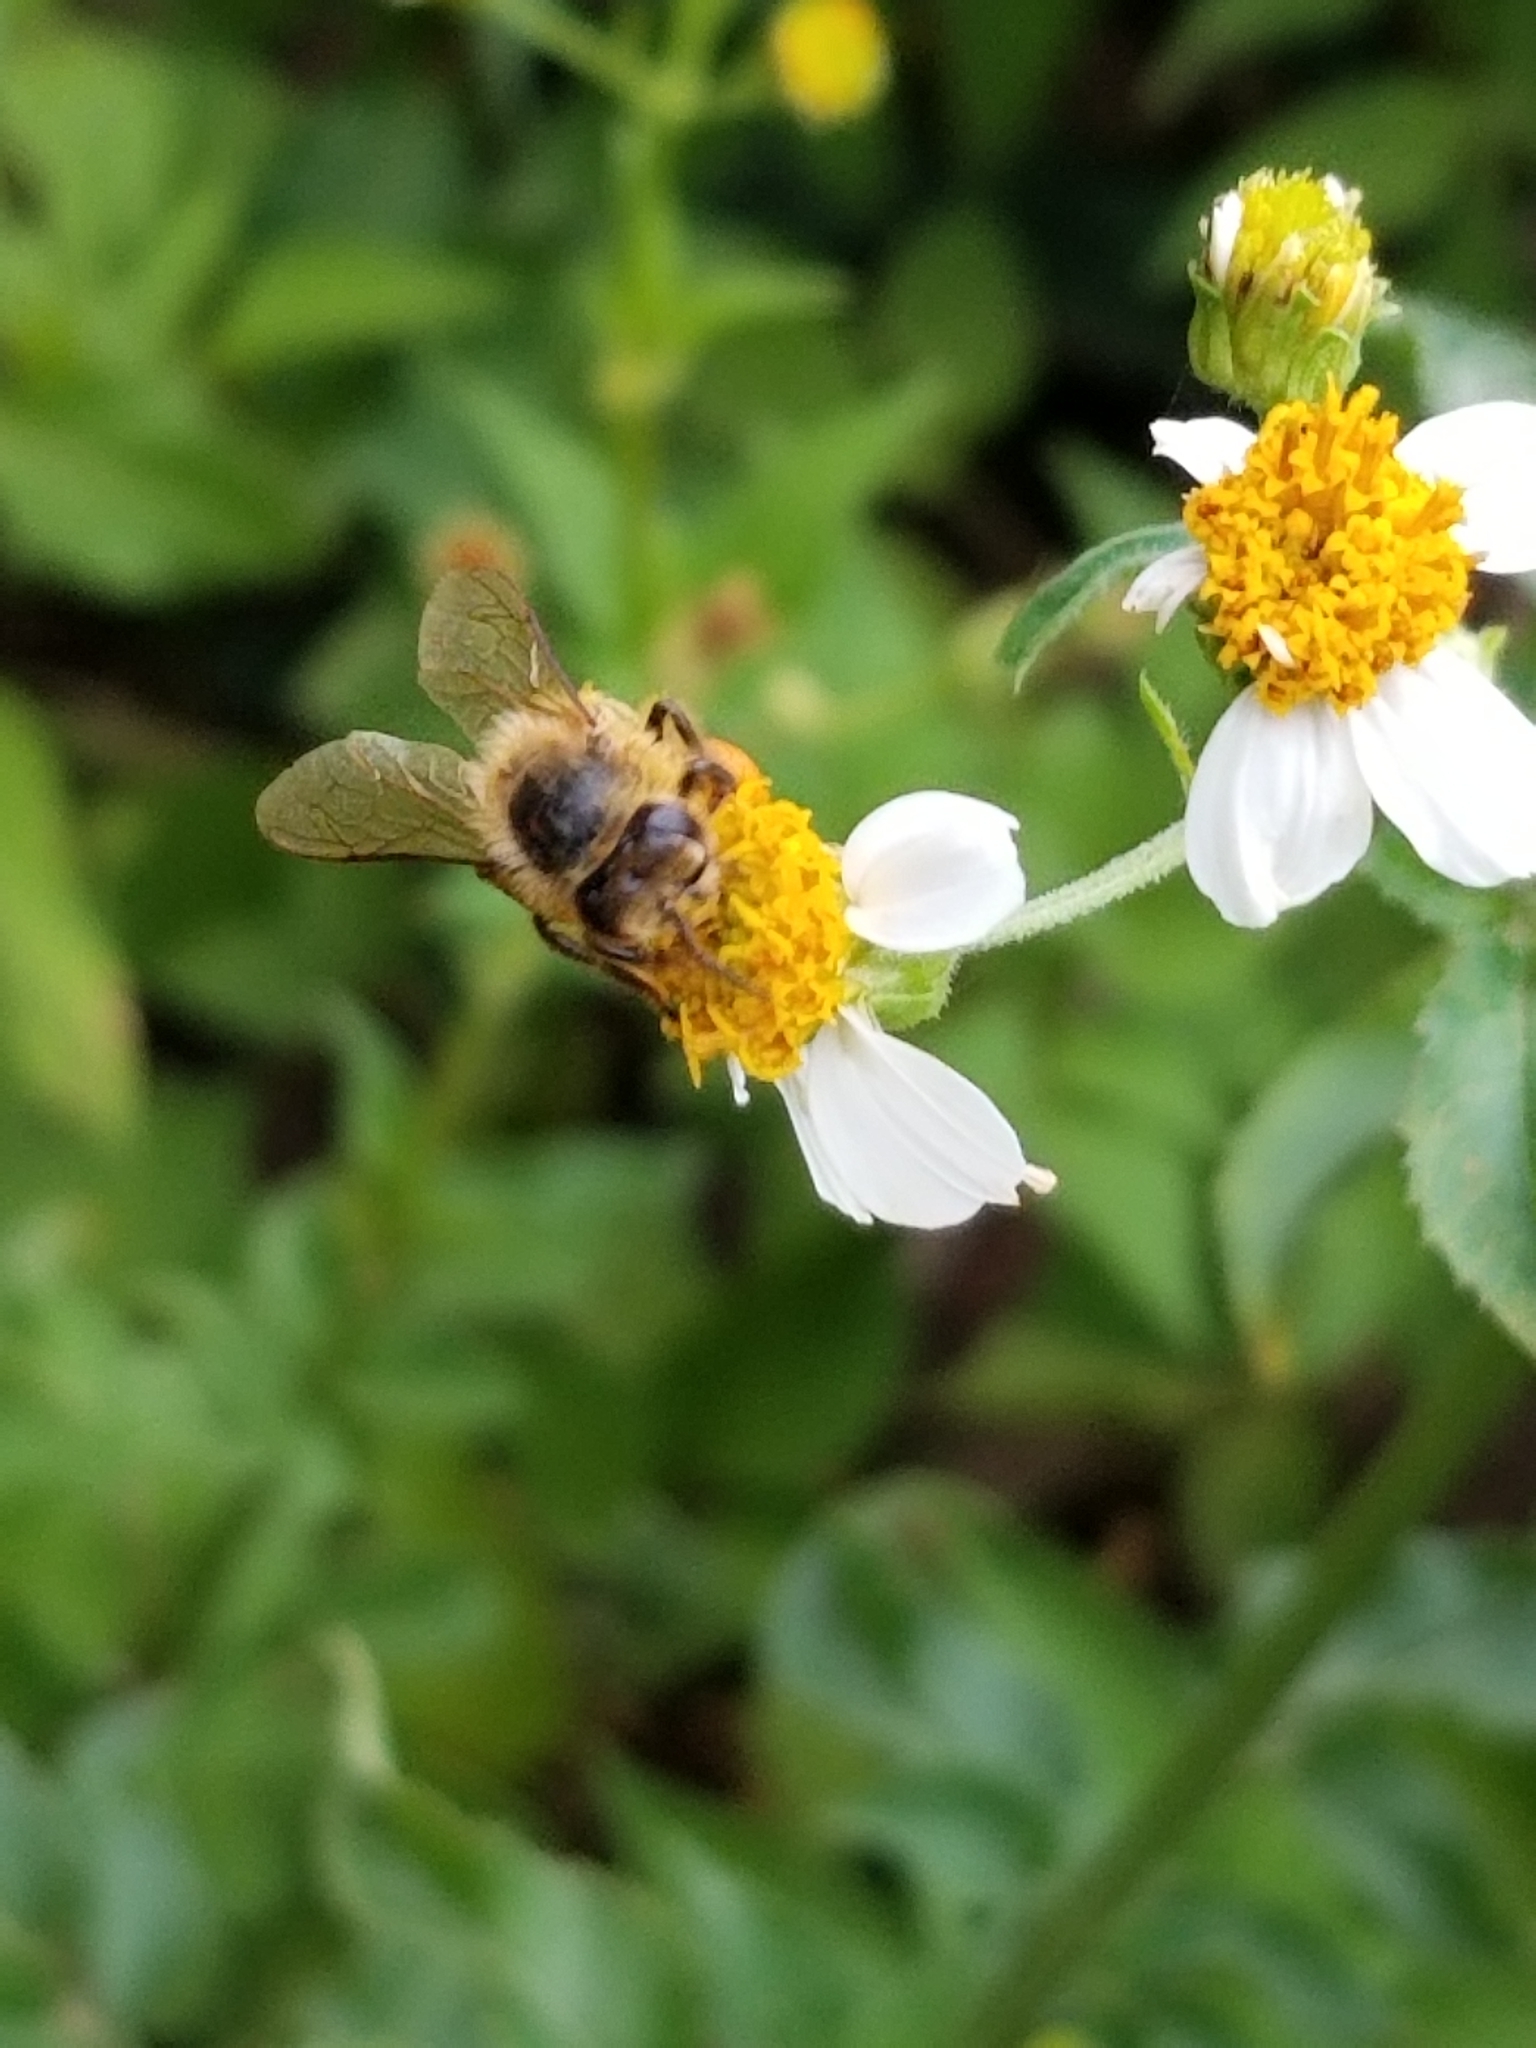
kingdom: Animalia
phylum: Arthropoda
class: Insecta
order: Hymenoptera
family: Apidae
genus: Apis
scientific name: Apis mellifera
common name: Honey bee
